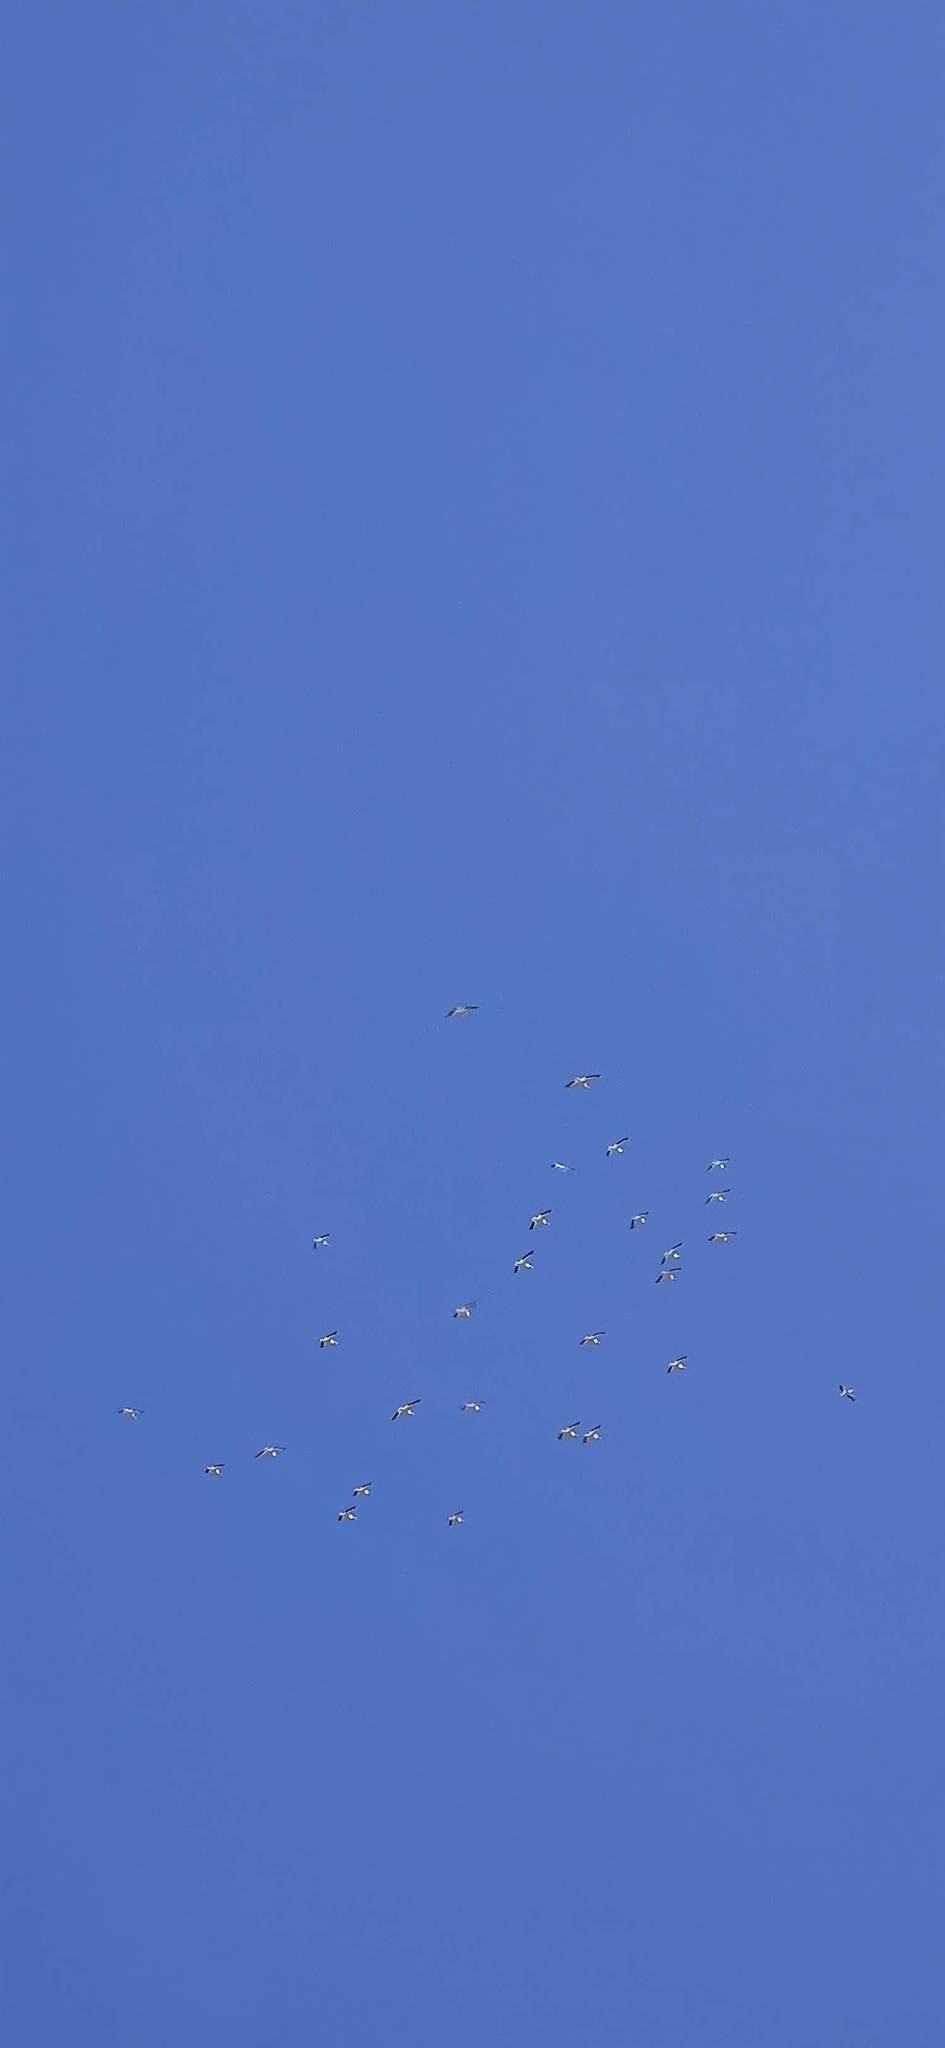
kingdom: Animalia
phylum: Chordata
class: Aves
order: Pelecaniformes
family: Pelecanidae
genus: Pelecanus
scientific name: Pelecanus erythrorhynchos
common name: American white pelican
